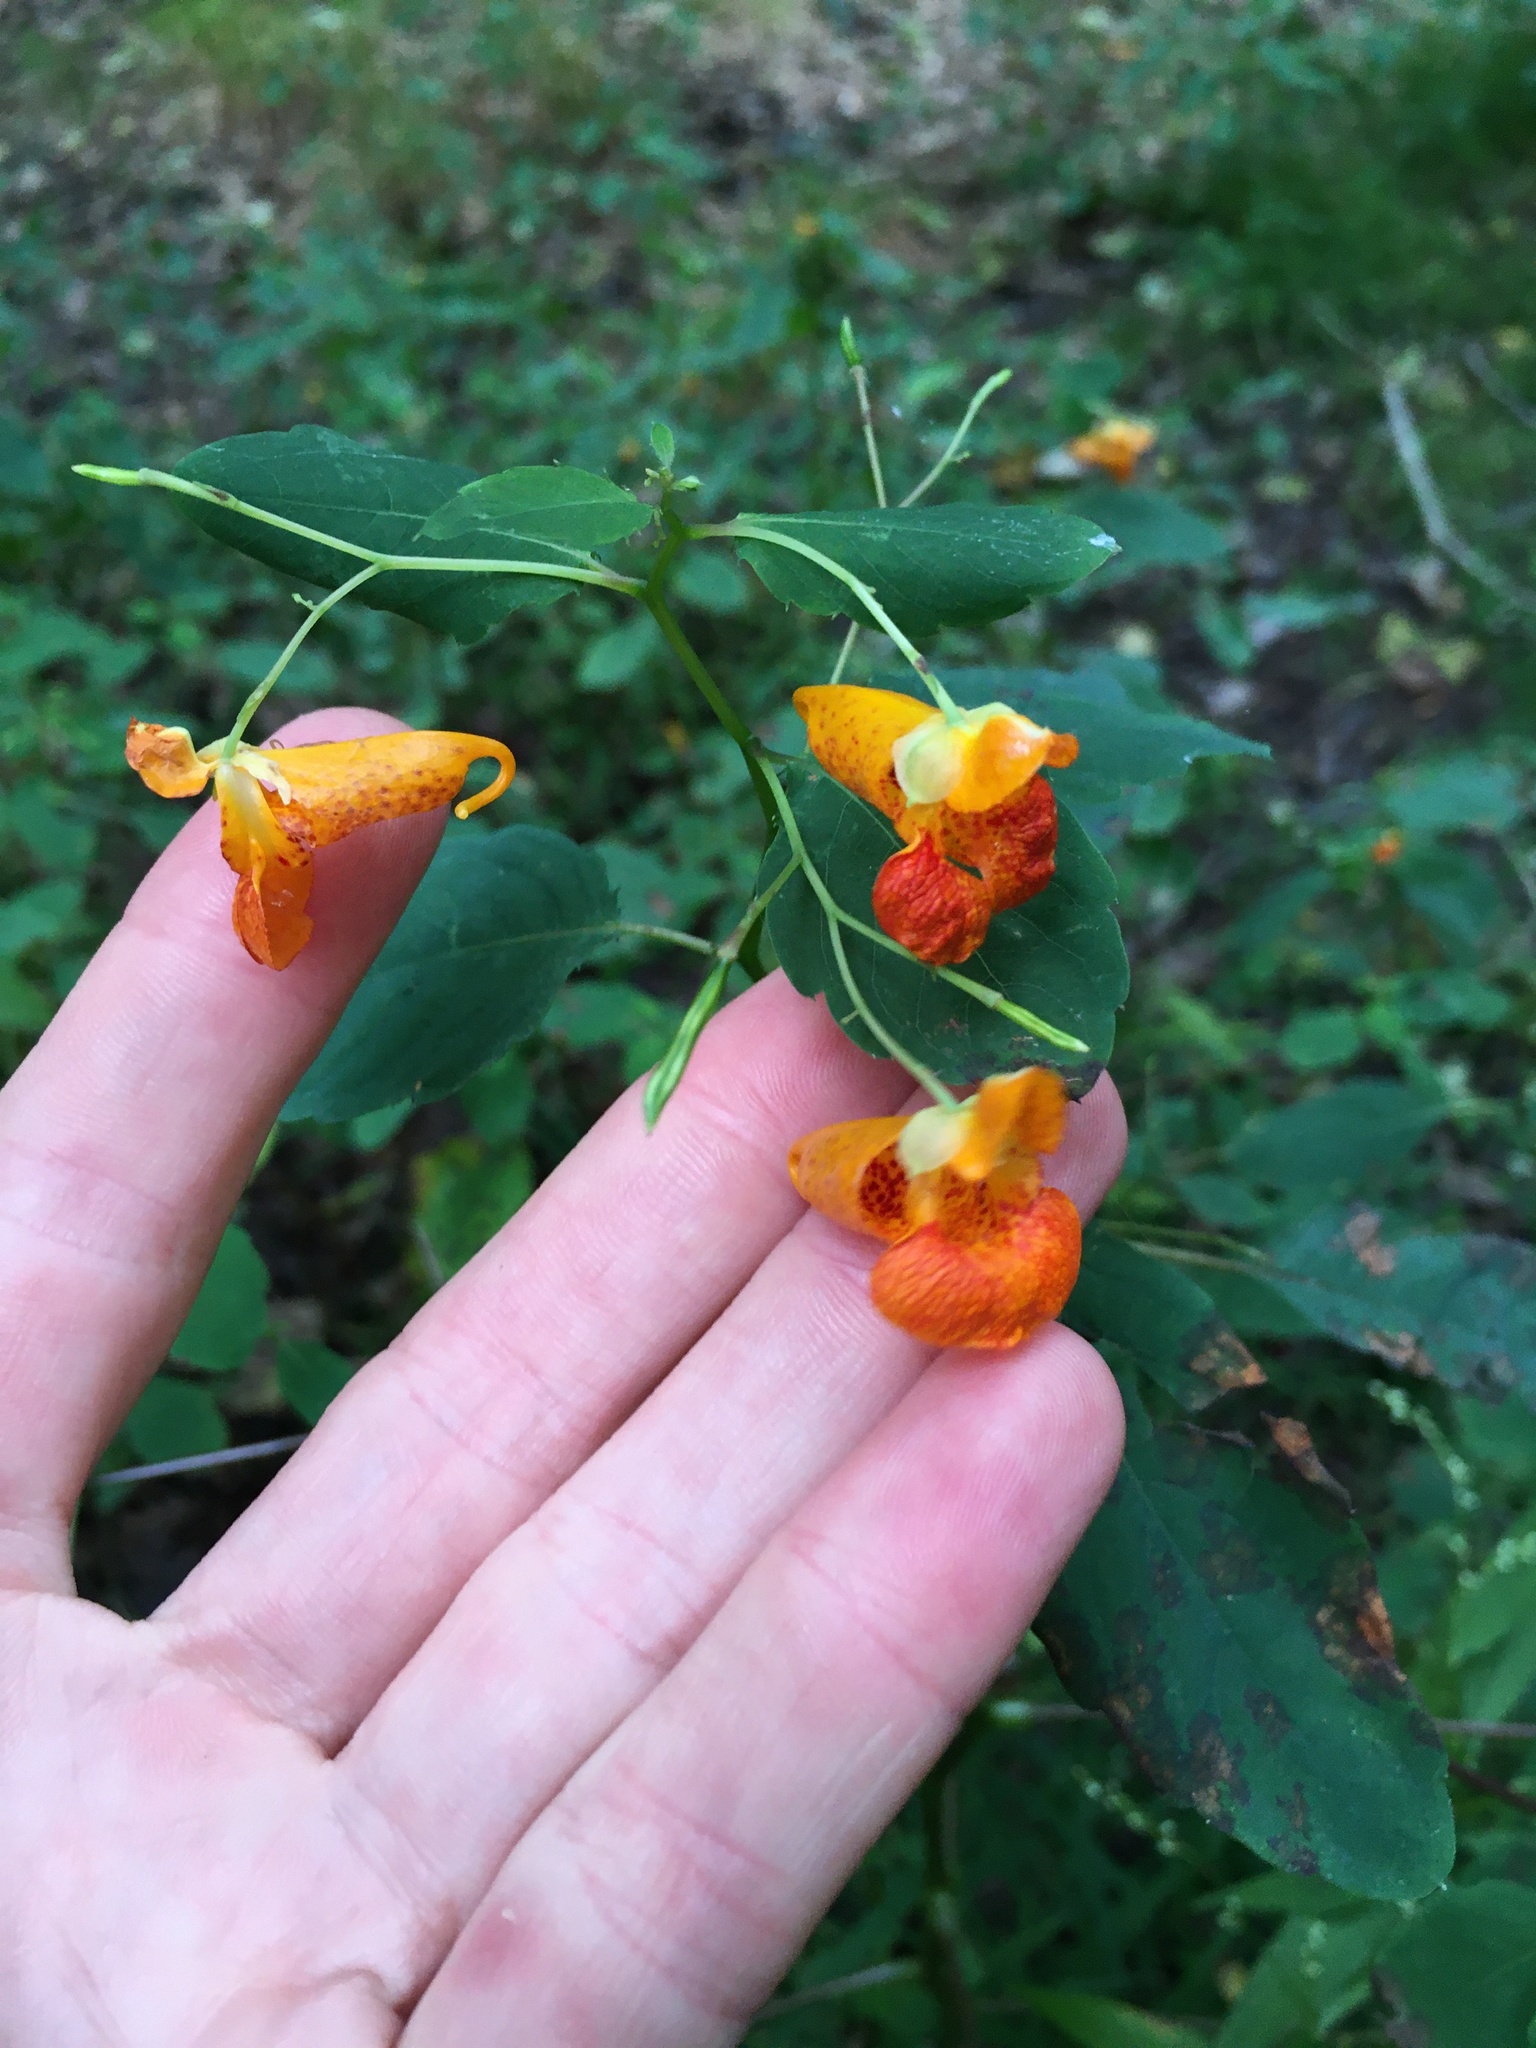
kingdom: Plantae
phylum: Tracheophyta
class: Magnoliopsida
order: Ericales
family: Balsaminaceae
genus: Impatiens
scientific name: Impatiens capensis
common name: Orange balsam
